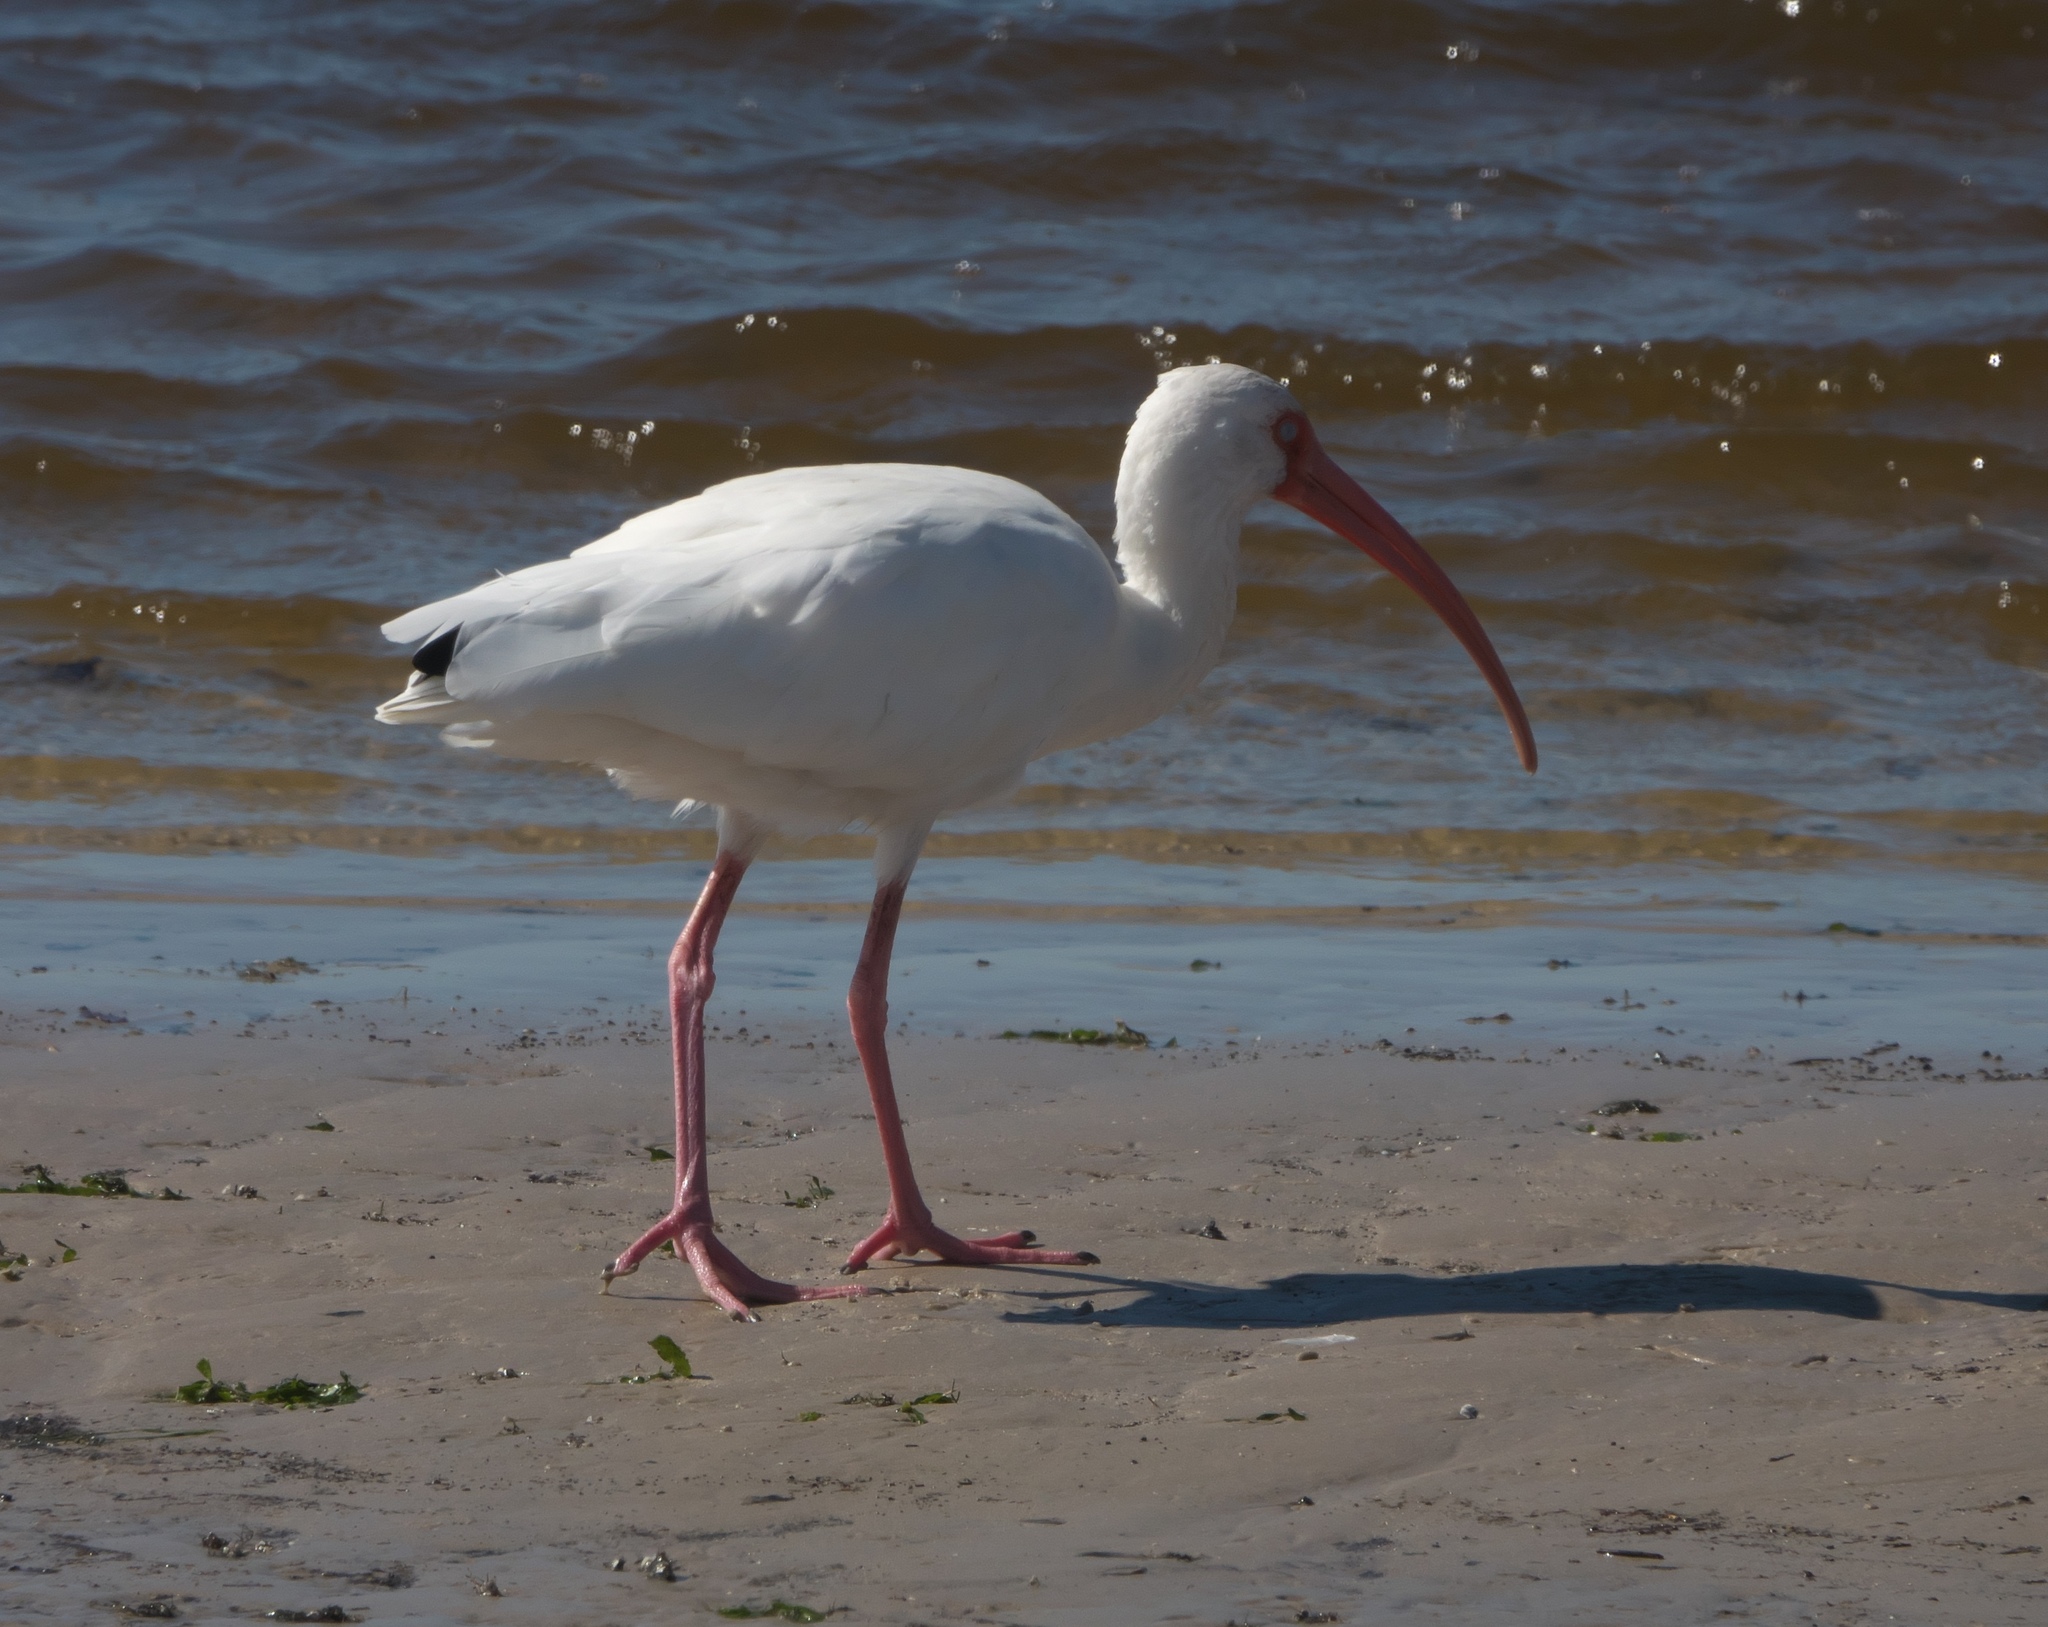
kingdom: Animalia
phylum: Chordata
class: Aves
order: Pelecaniformes
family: Threskiornithidae
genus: Eudocimus
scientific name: Eudocimus albus
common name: White ibis
